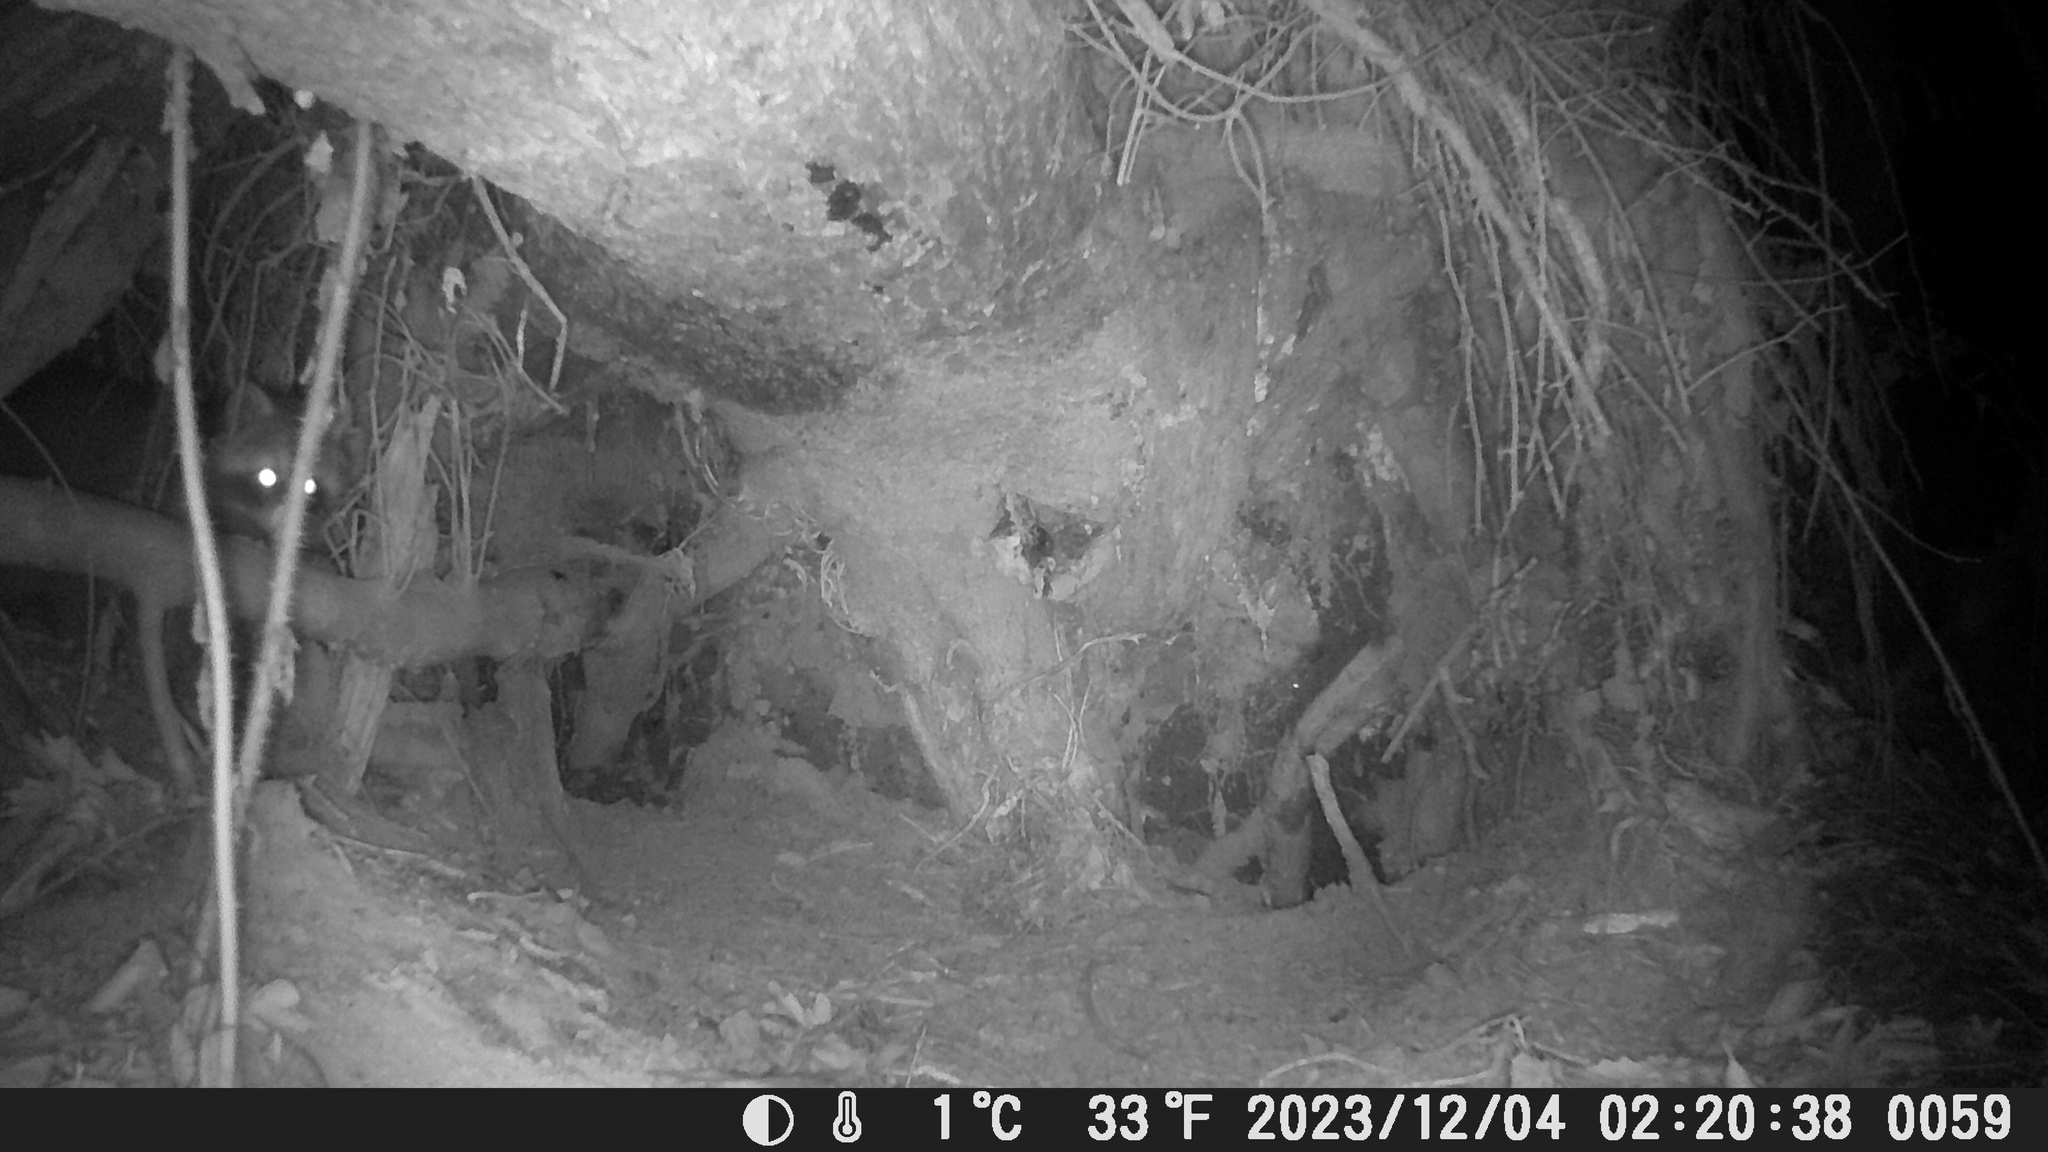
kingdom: Animalia
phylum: Chordata
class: Mammalia
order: Carnivora
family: Procyonidae
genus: Procyon
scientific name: Procyon lotor
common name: Raccoon
